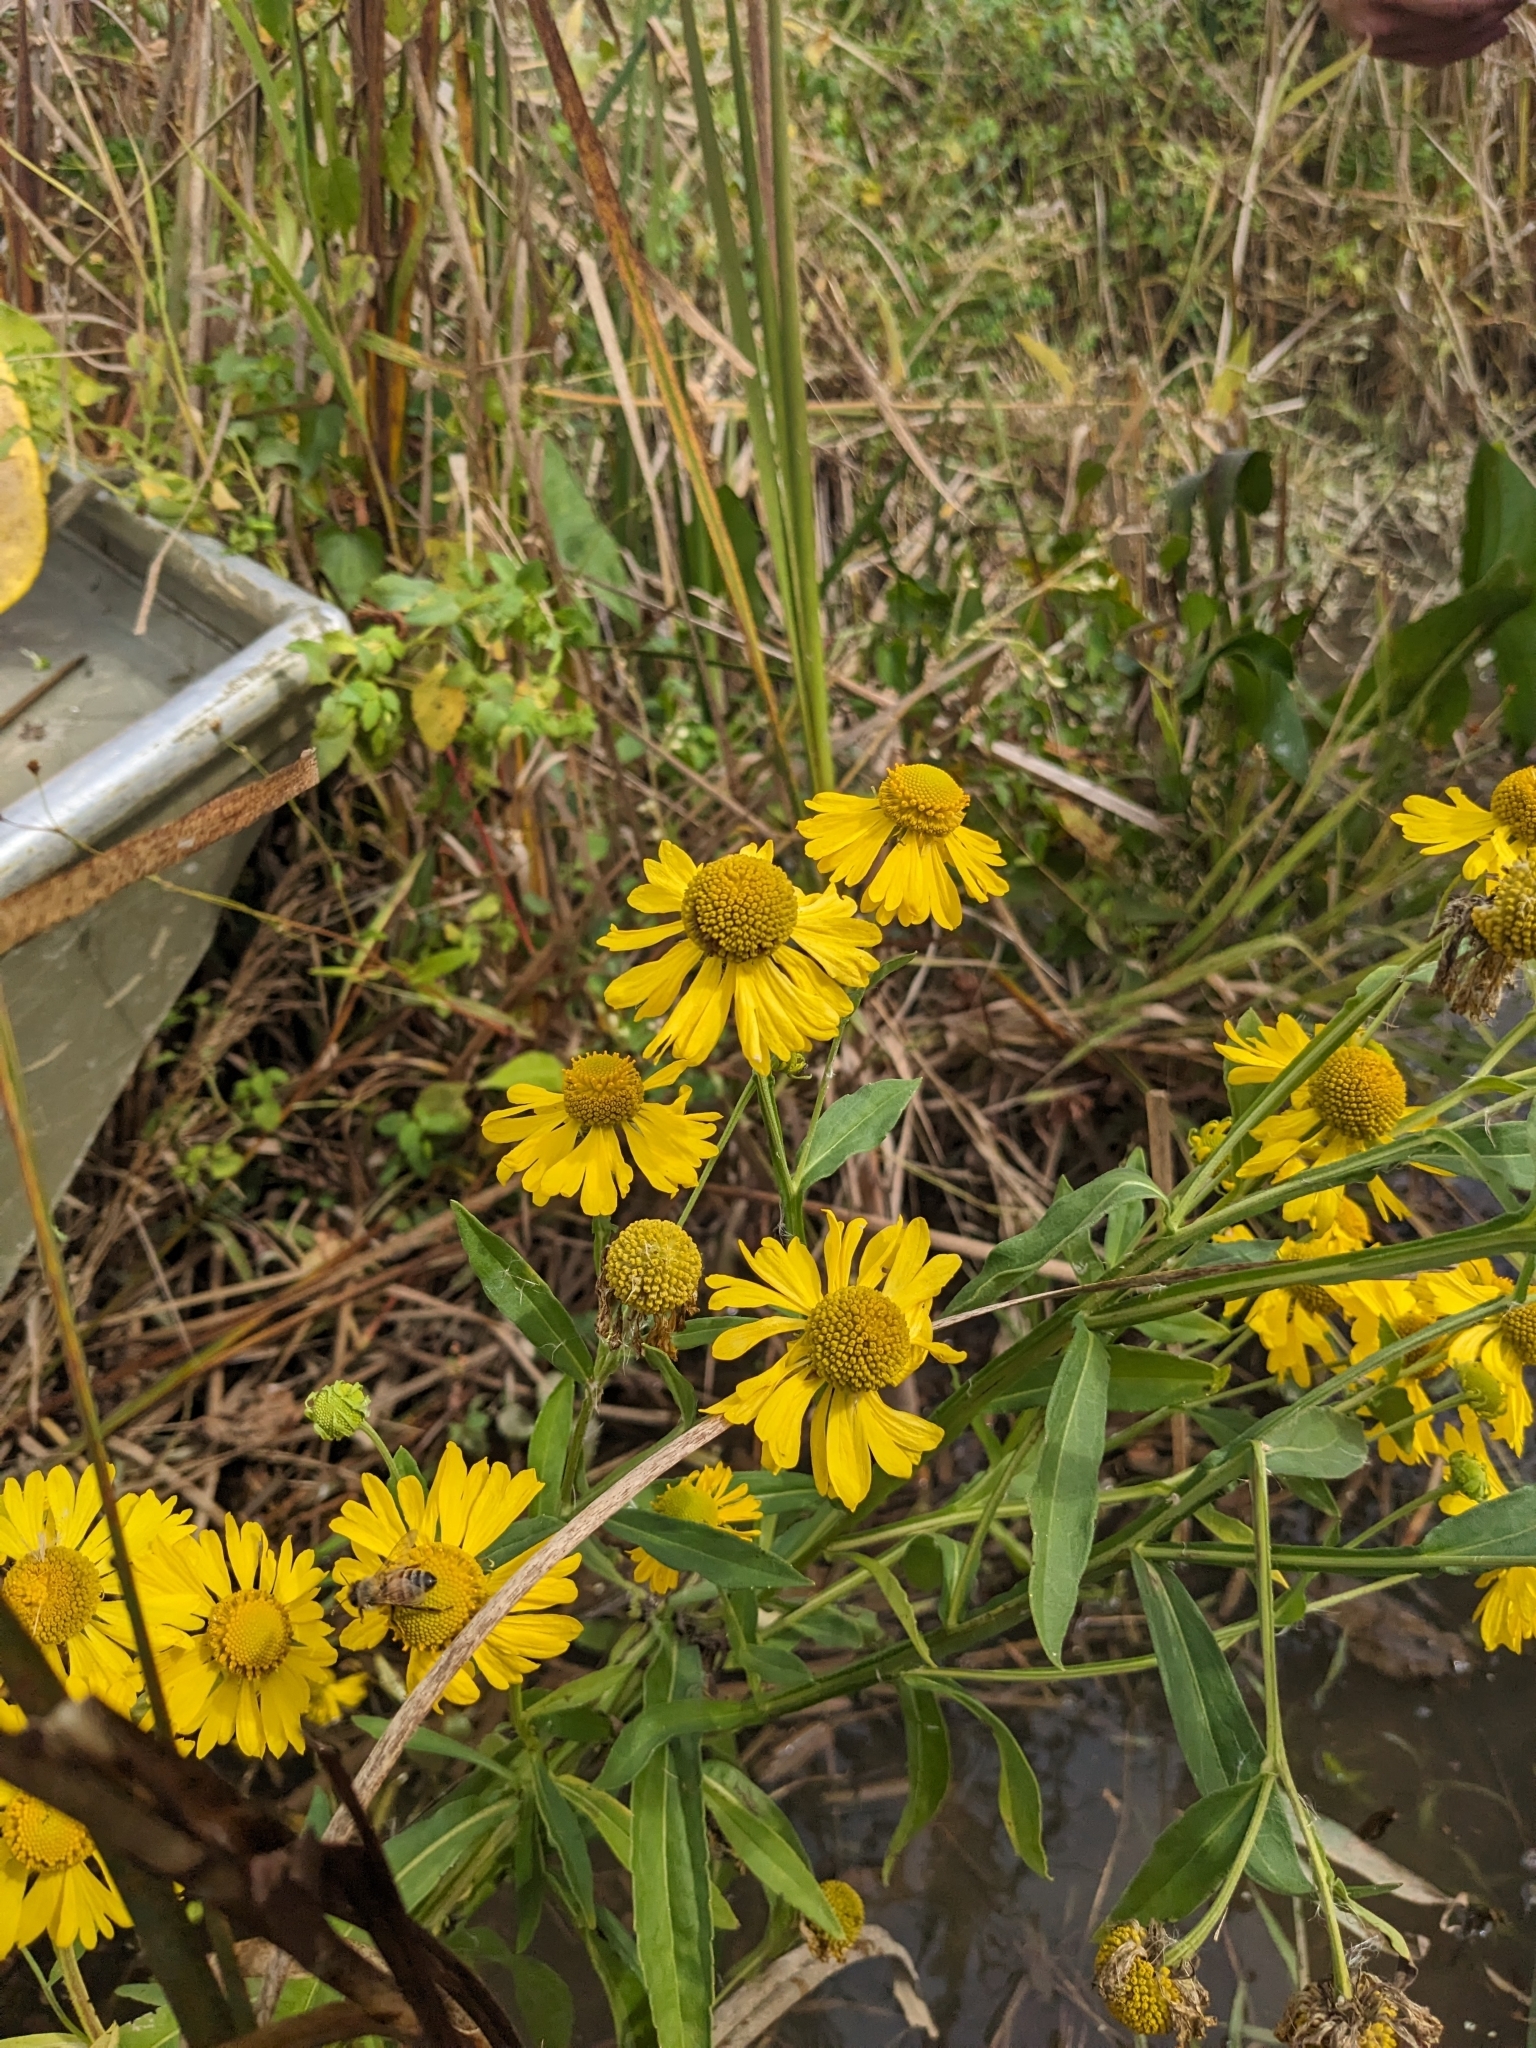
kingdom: Plantae
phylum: Tracheophyta
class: Magnoliopsida
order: Asterales
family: Asteraceae
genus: Helenium
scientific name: Helenium autumnale
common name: Sneezeweed
